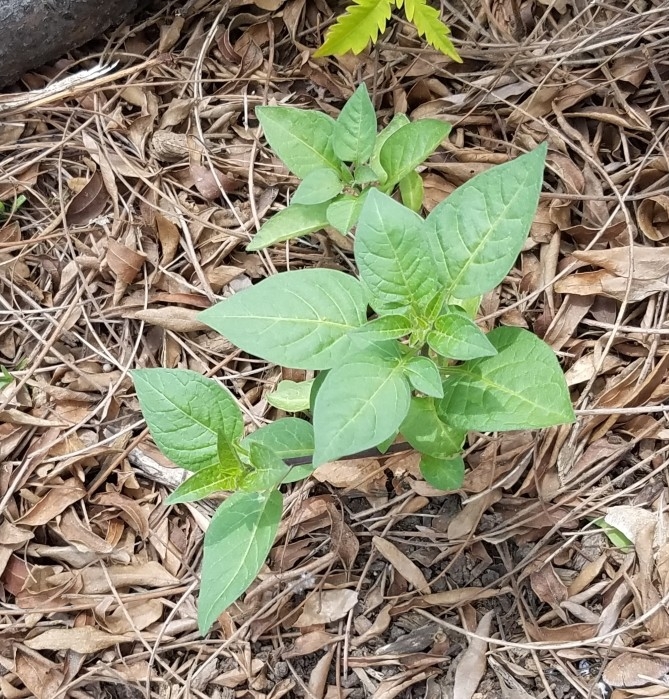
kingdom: Plantae
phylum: Tracheophyta
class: Magnoliopsida
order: Solanales
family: Solanaceae
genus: Solanum
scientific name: Solanum dulcamara
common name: Climbing nightshade
